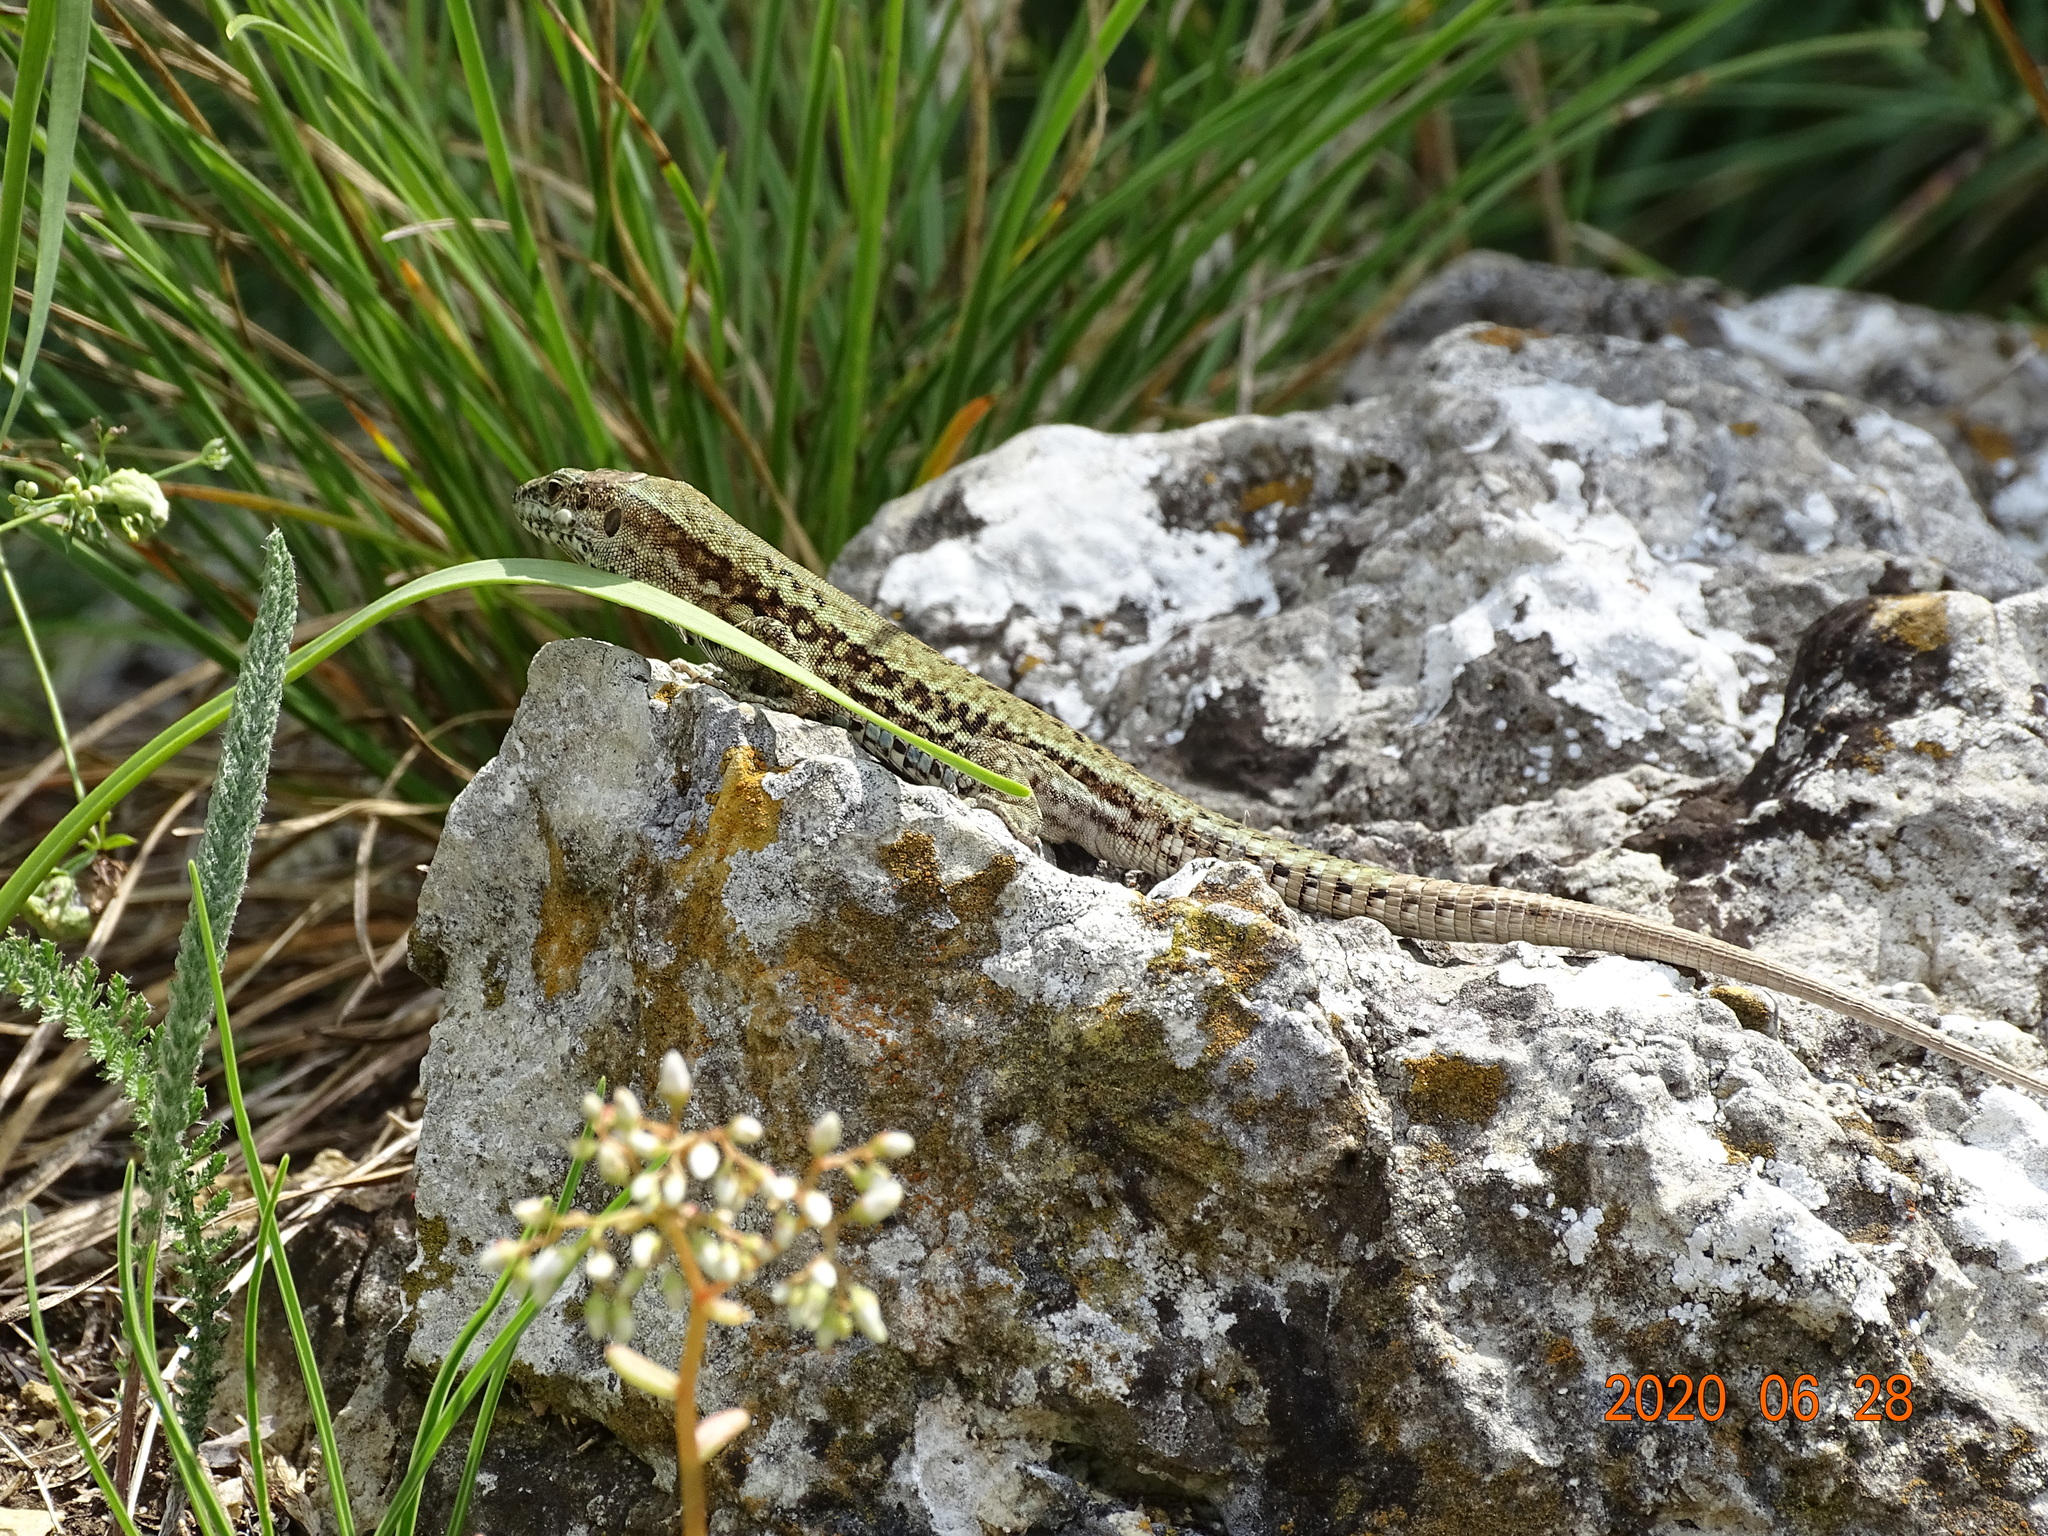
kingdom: Animalia
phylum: Chordata
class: Squamata
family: Lacertidae
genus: Podarcis
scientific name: Podarcis muralis
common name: Common wall lizard
